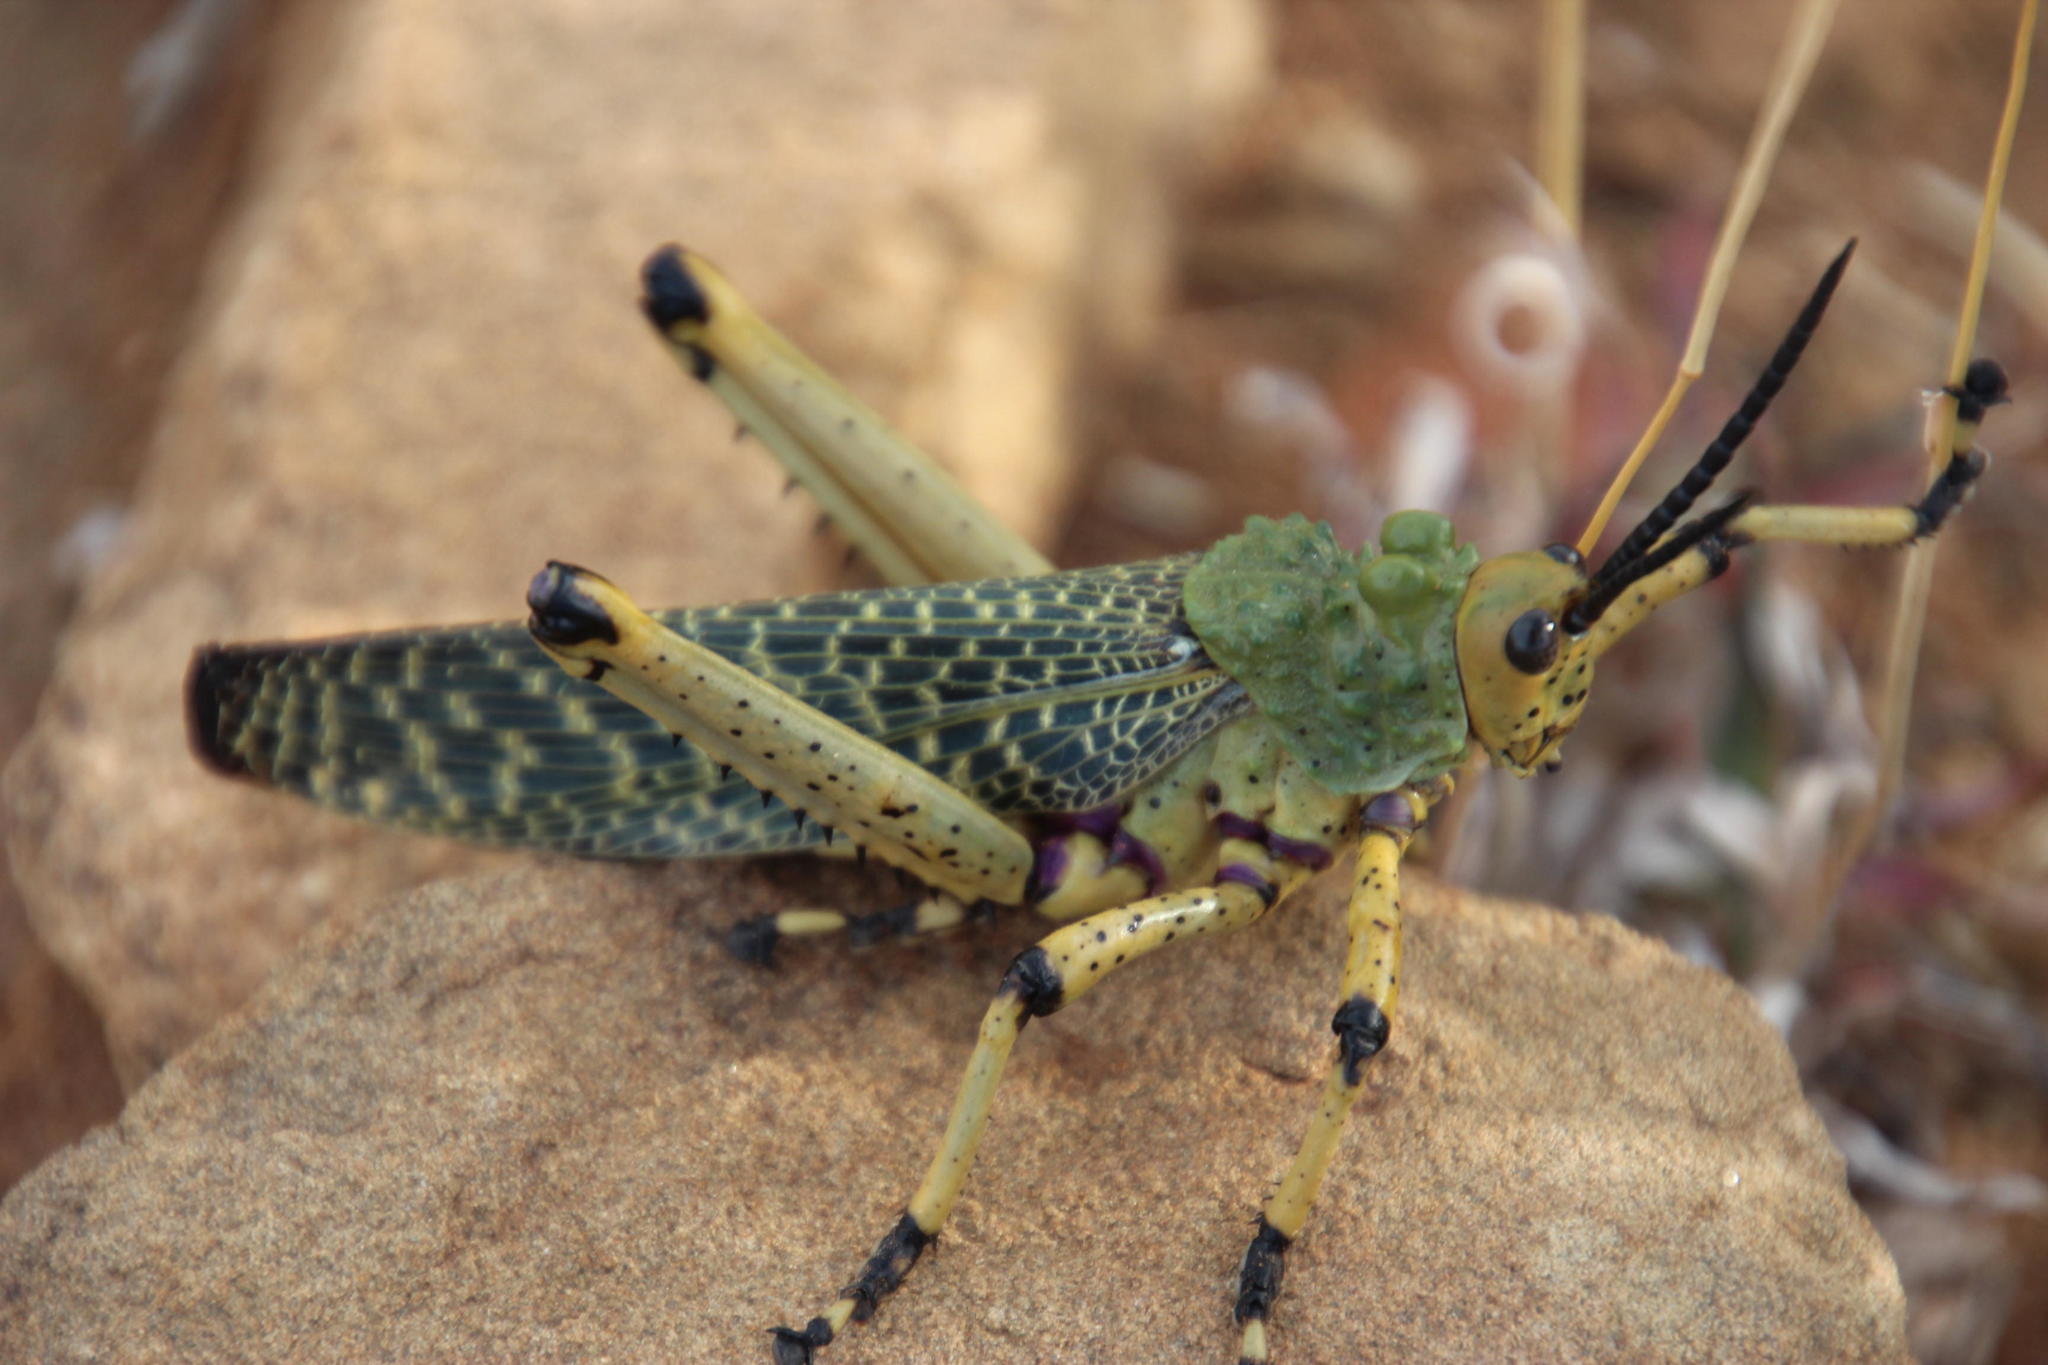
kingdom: Animalia
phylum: Arthropoda
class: Insecta
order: Orthoptera
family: Pyrgomorphidae
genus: Phymateus
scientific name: Phymateus leprosus
